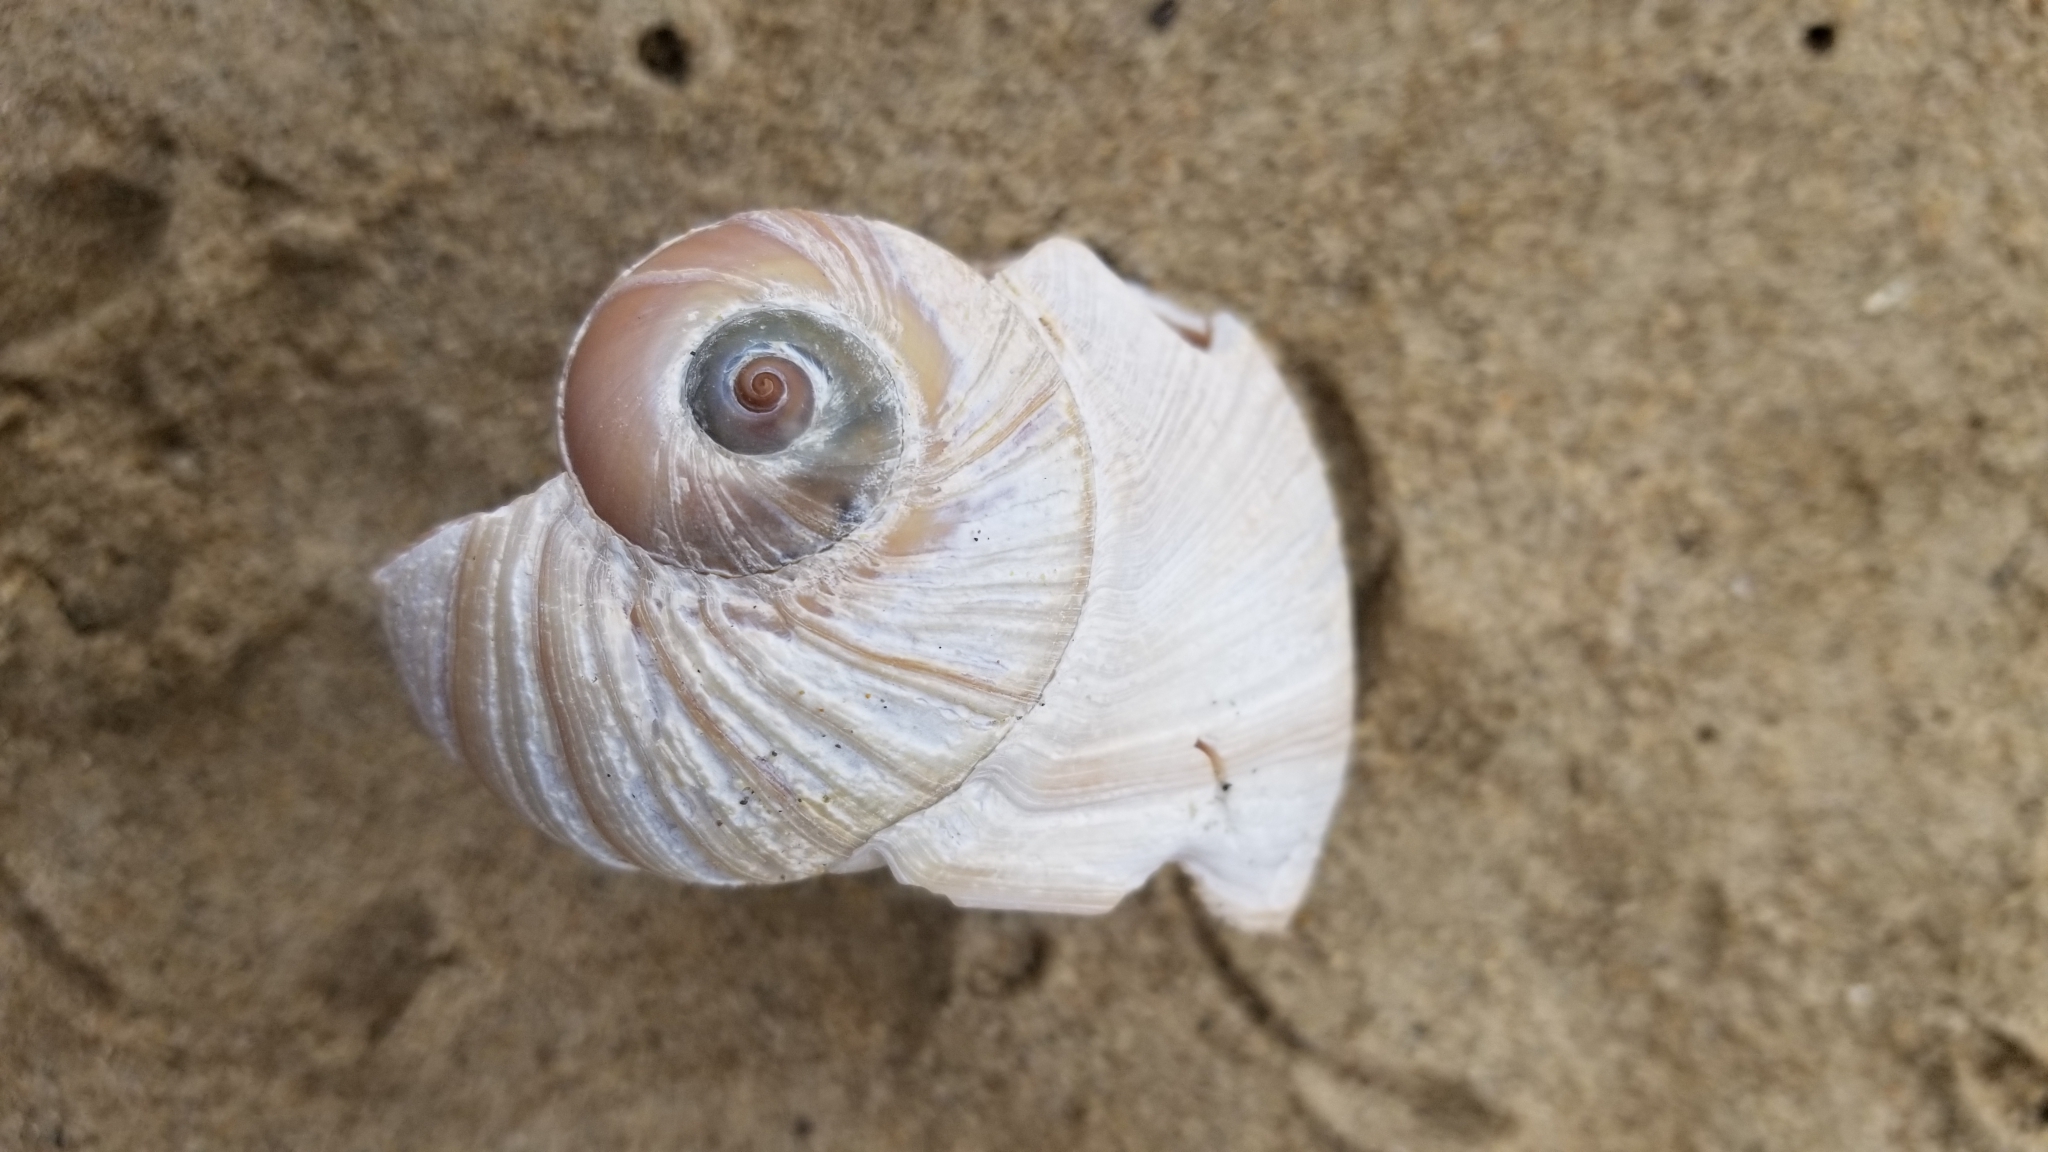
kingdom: Animalia
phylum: Mollusca
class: Gastropoda
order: Littorinimorpha
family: Naticidae
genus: Neverita
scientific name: Neverita lewisii
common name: Lewis' moonsnail
